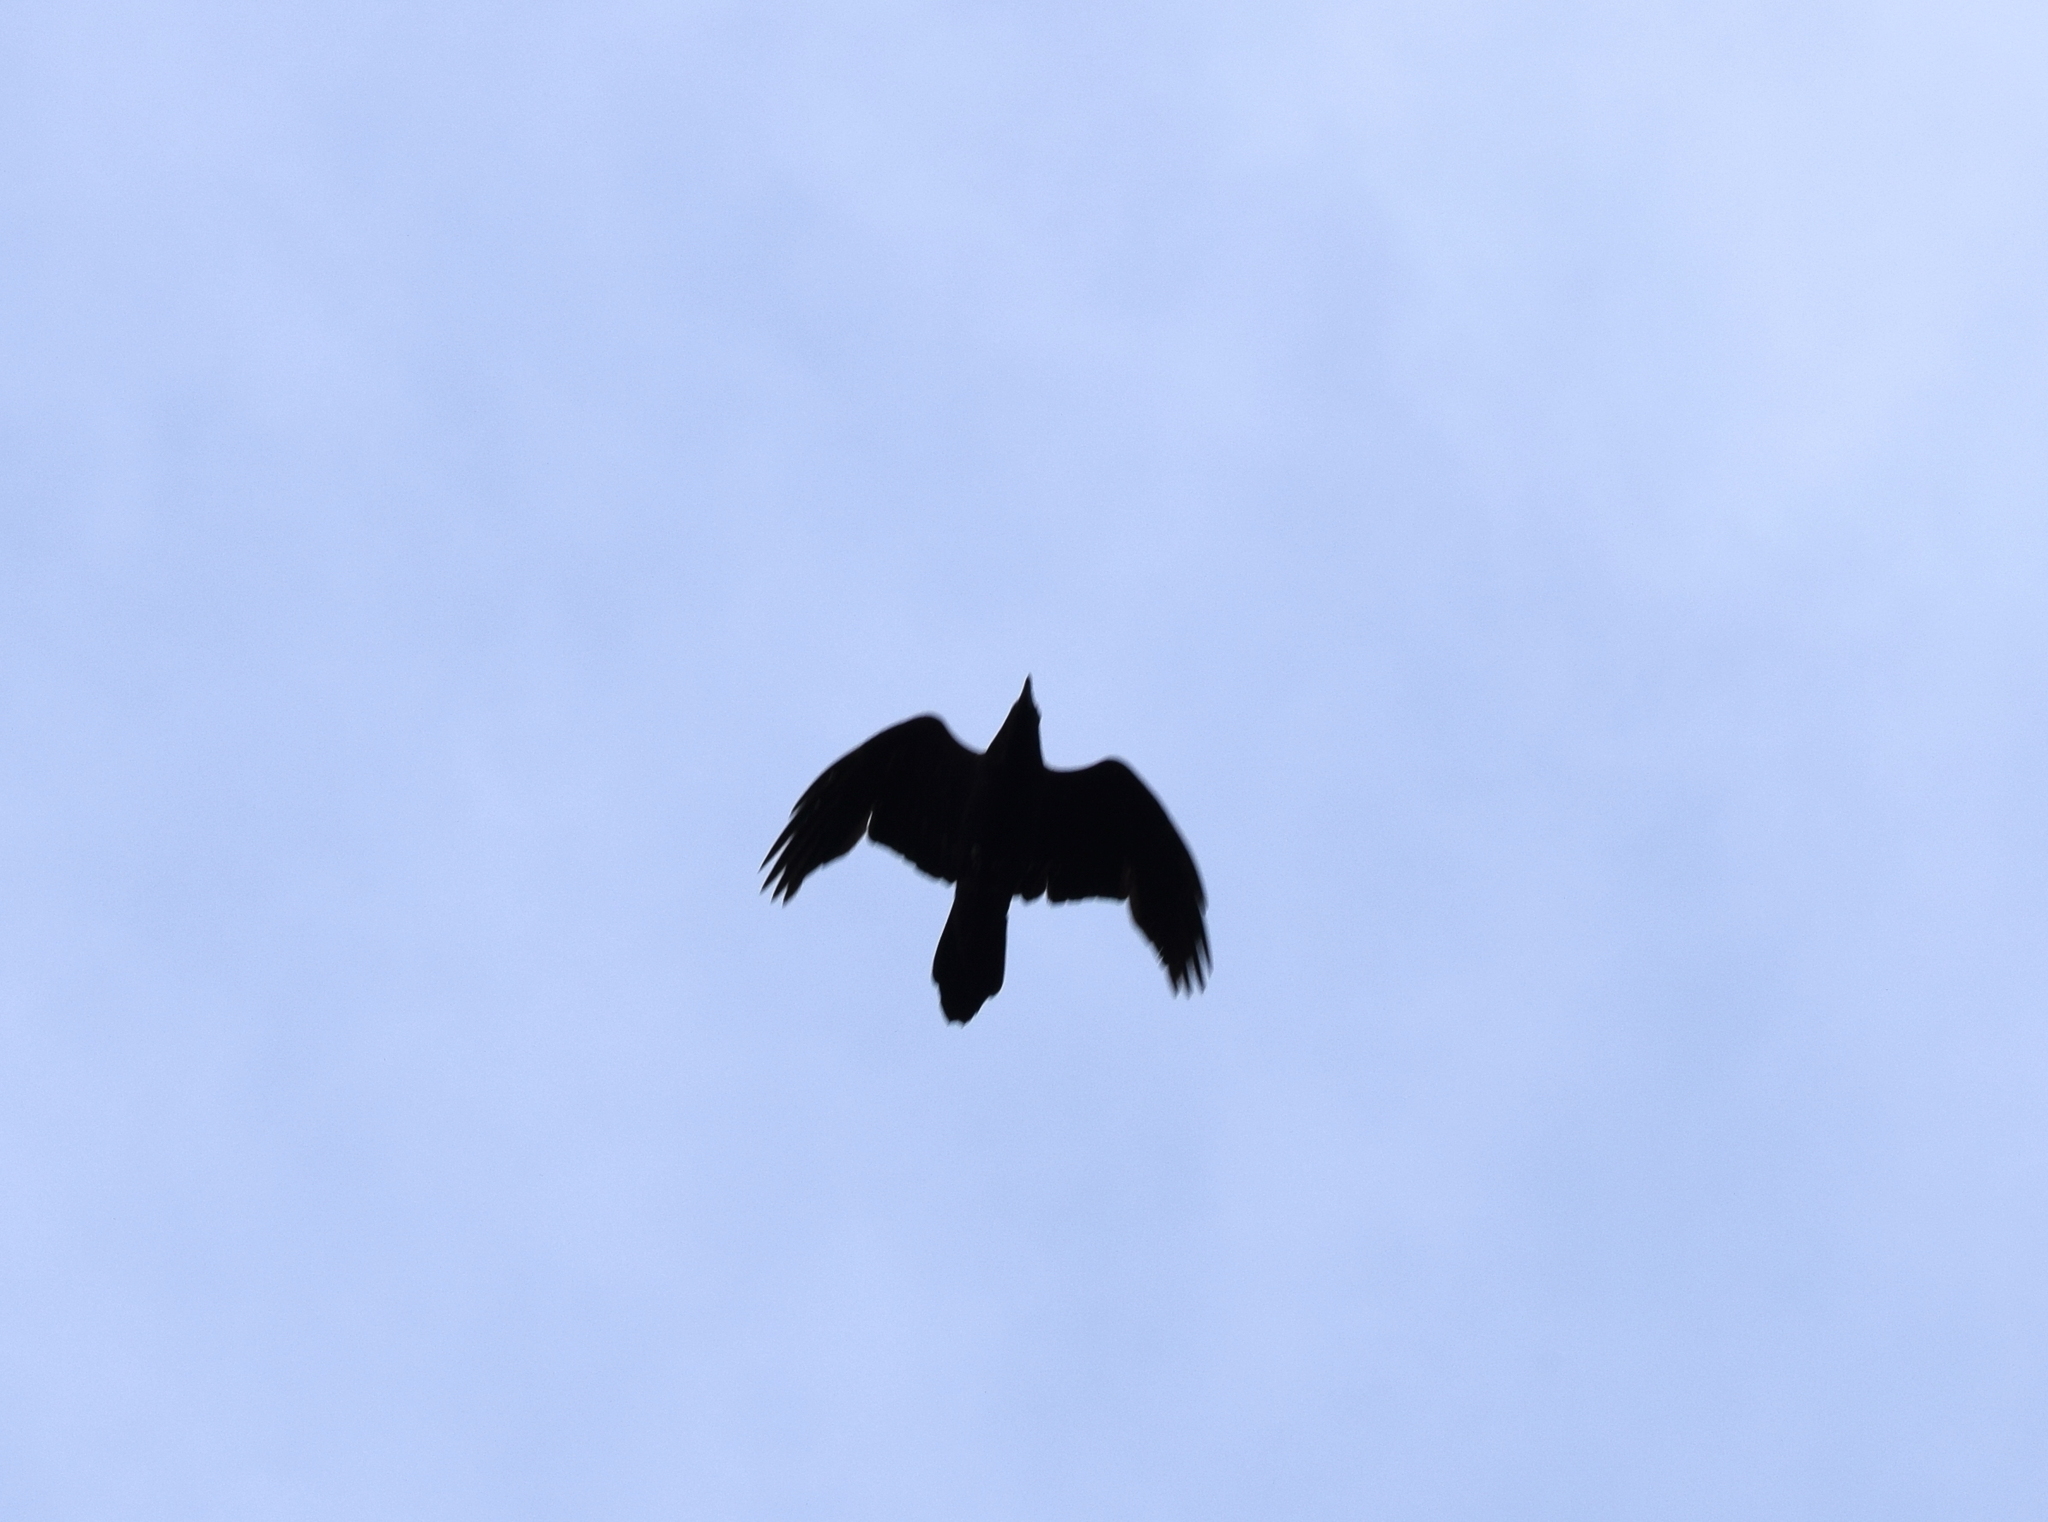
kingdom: Animalia
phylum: Chordata
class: Aves
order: Passeriformes
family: Corvidae
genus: Corvus
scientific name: Corvus corax
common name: Common raven
